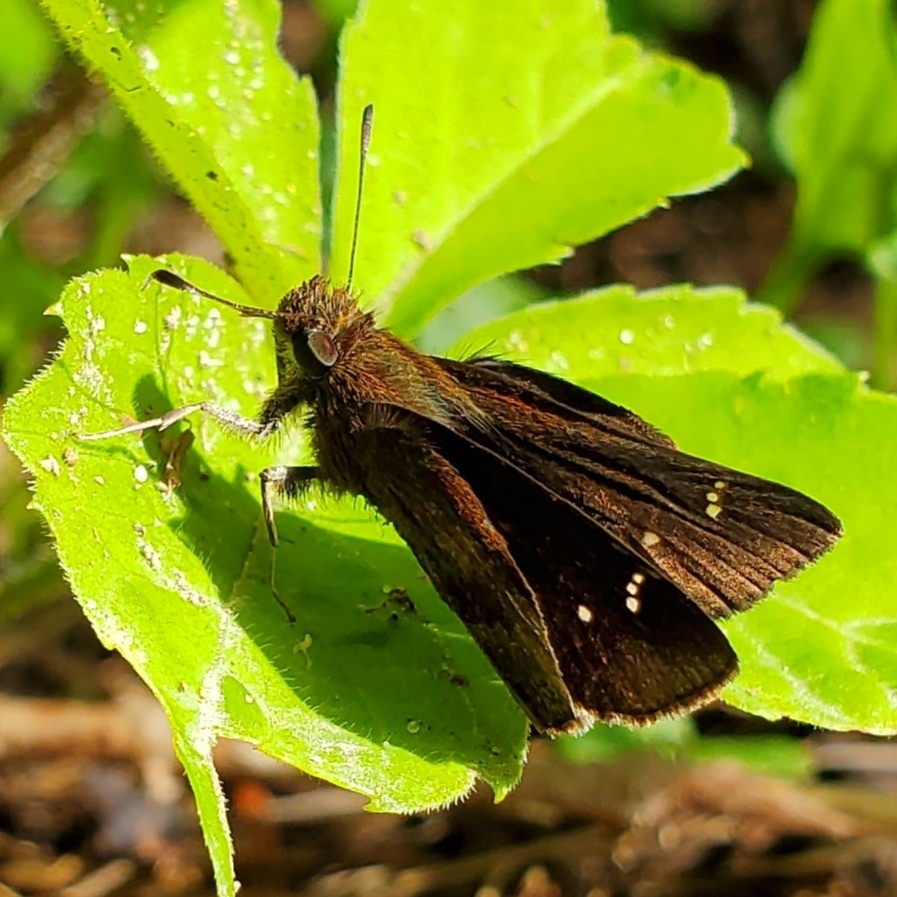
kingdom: Animalia
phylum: Arthropoda
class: Insecta
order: Lepidoptera
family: Hesperiidae
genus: Lerema
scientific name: Lerema accius
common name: Clouded skipper
